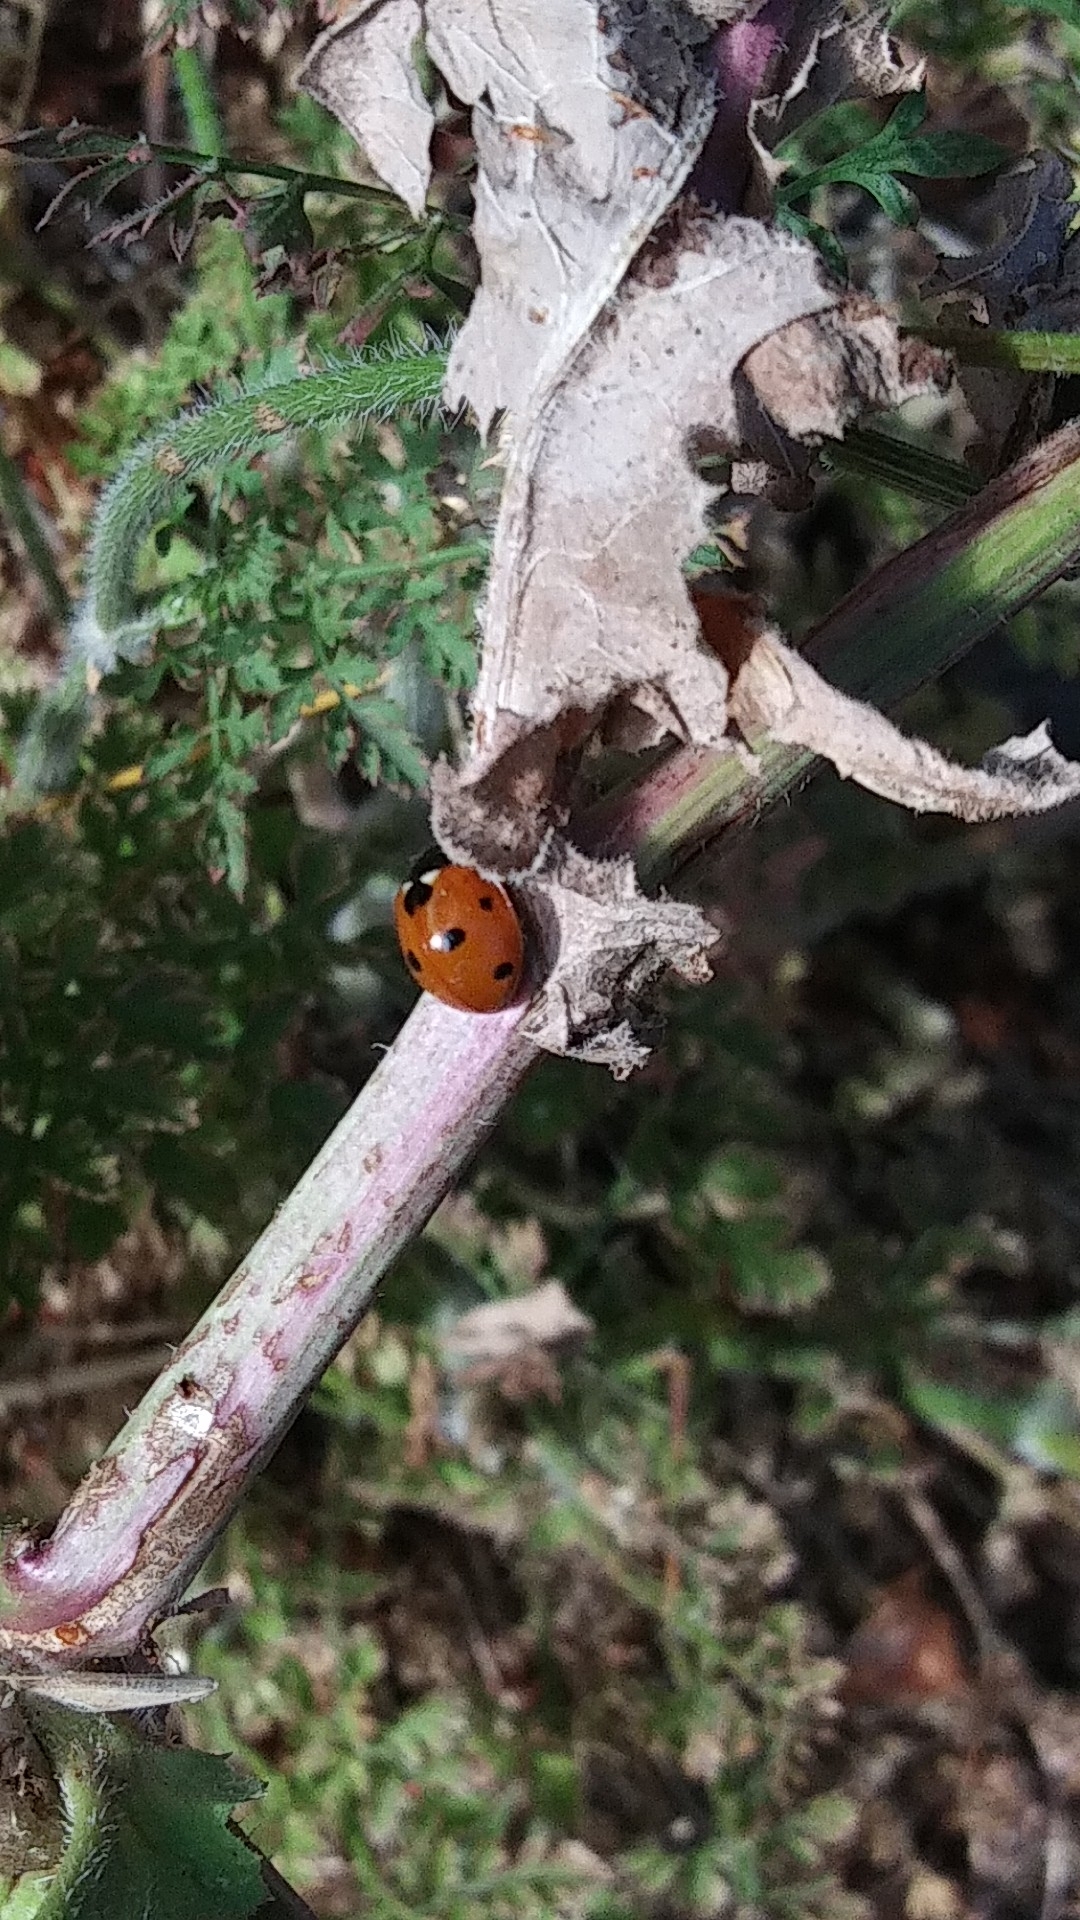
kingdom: Animalia
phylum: Arthropoda
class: Insecta
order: Coleoptera
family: Coccinellidae
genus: Coccinella
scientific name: Coccinella septempunctata
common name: Sevenspotted lady beetle
